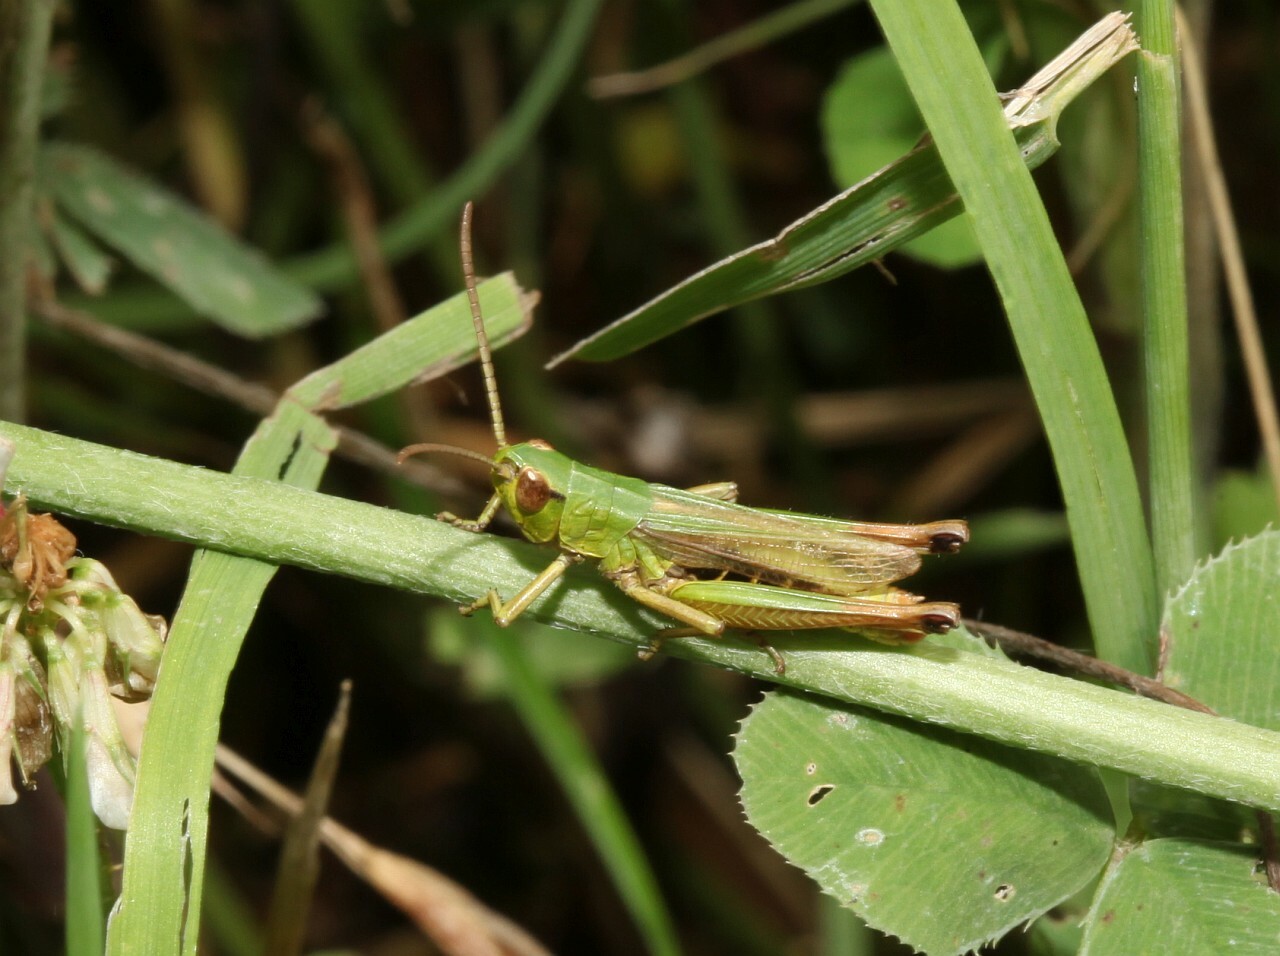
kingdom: Animalia
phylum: Arthropoda
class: Insecta
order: Orthoptera
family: Acrididae
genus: Pseudochorthippus
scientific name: Pseudochorthippus parallelus
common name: Meadow grasshopper
